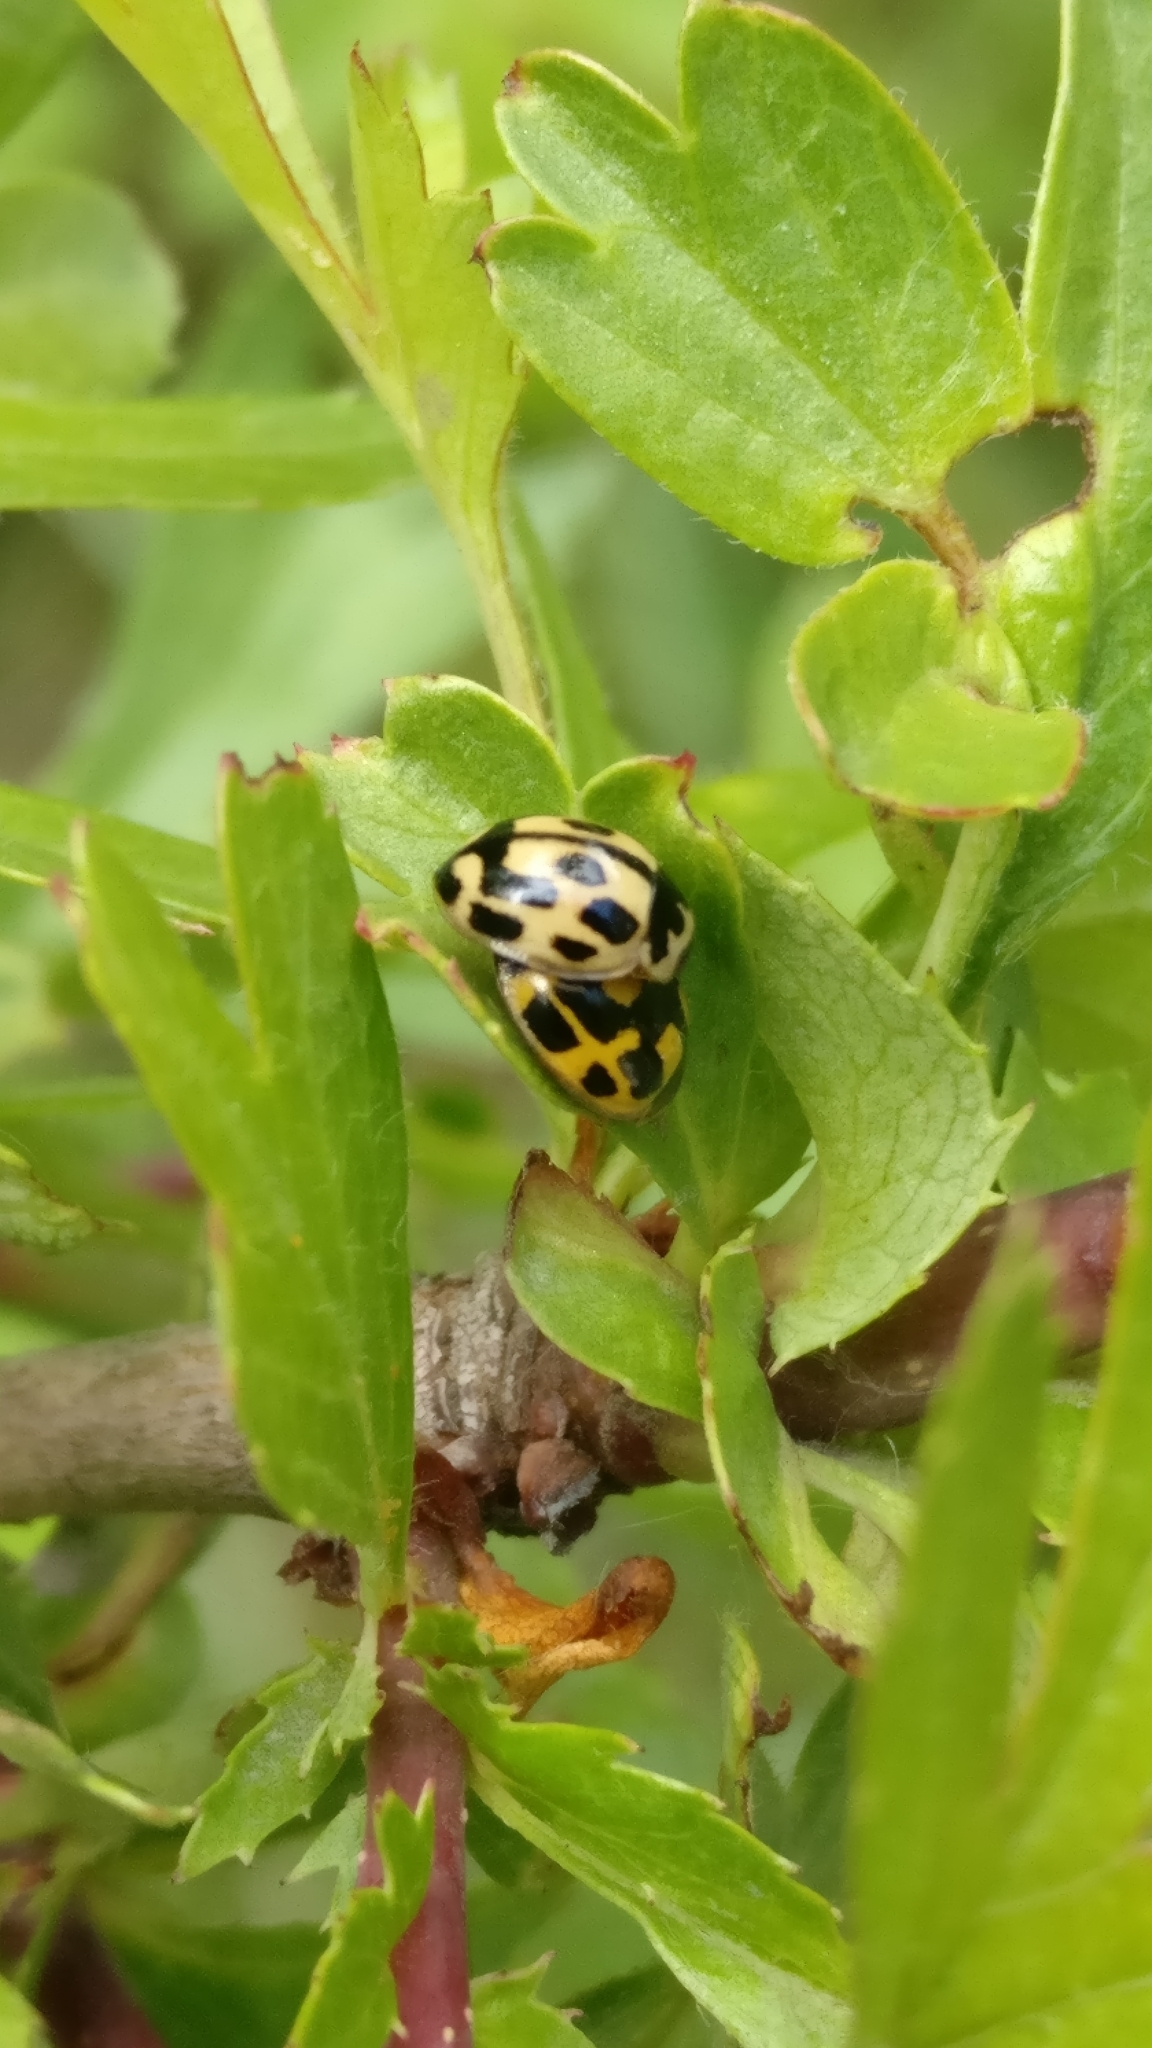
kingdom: Animalia
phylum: Arthropoda
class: Insecta
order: Coleoptera
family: Coccinellidae
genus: Propylaea
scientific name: Propylaea quatuordecimpunctata
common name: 14-spotted ladybird beetle
